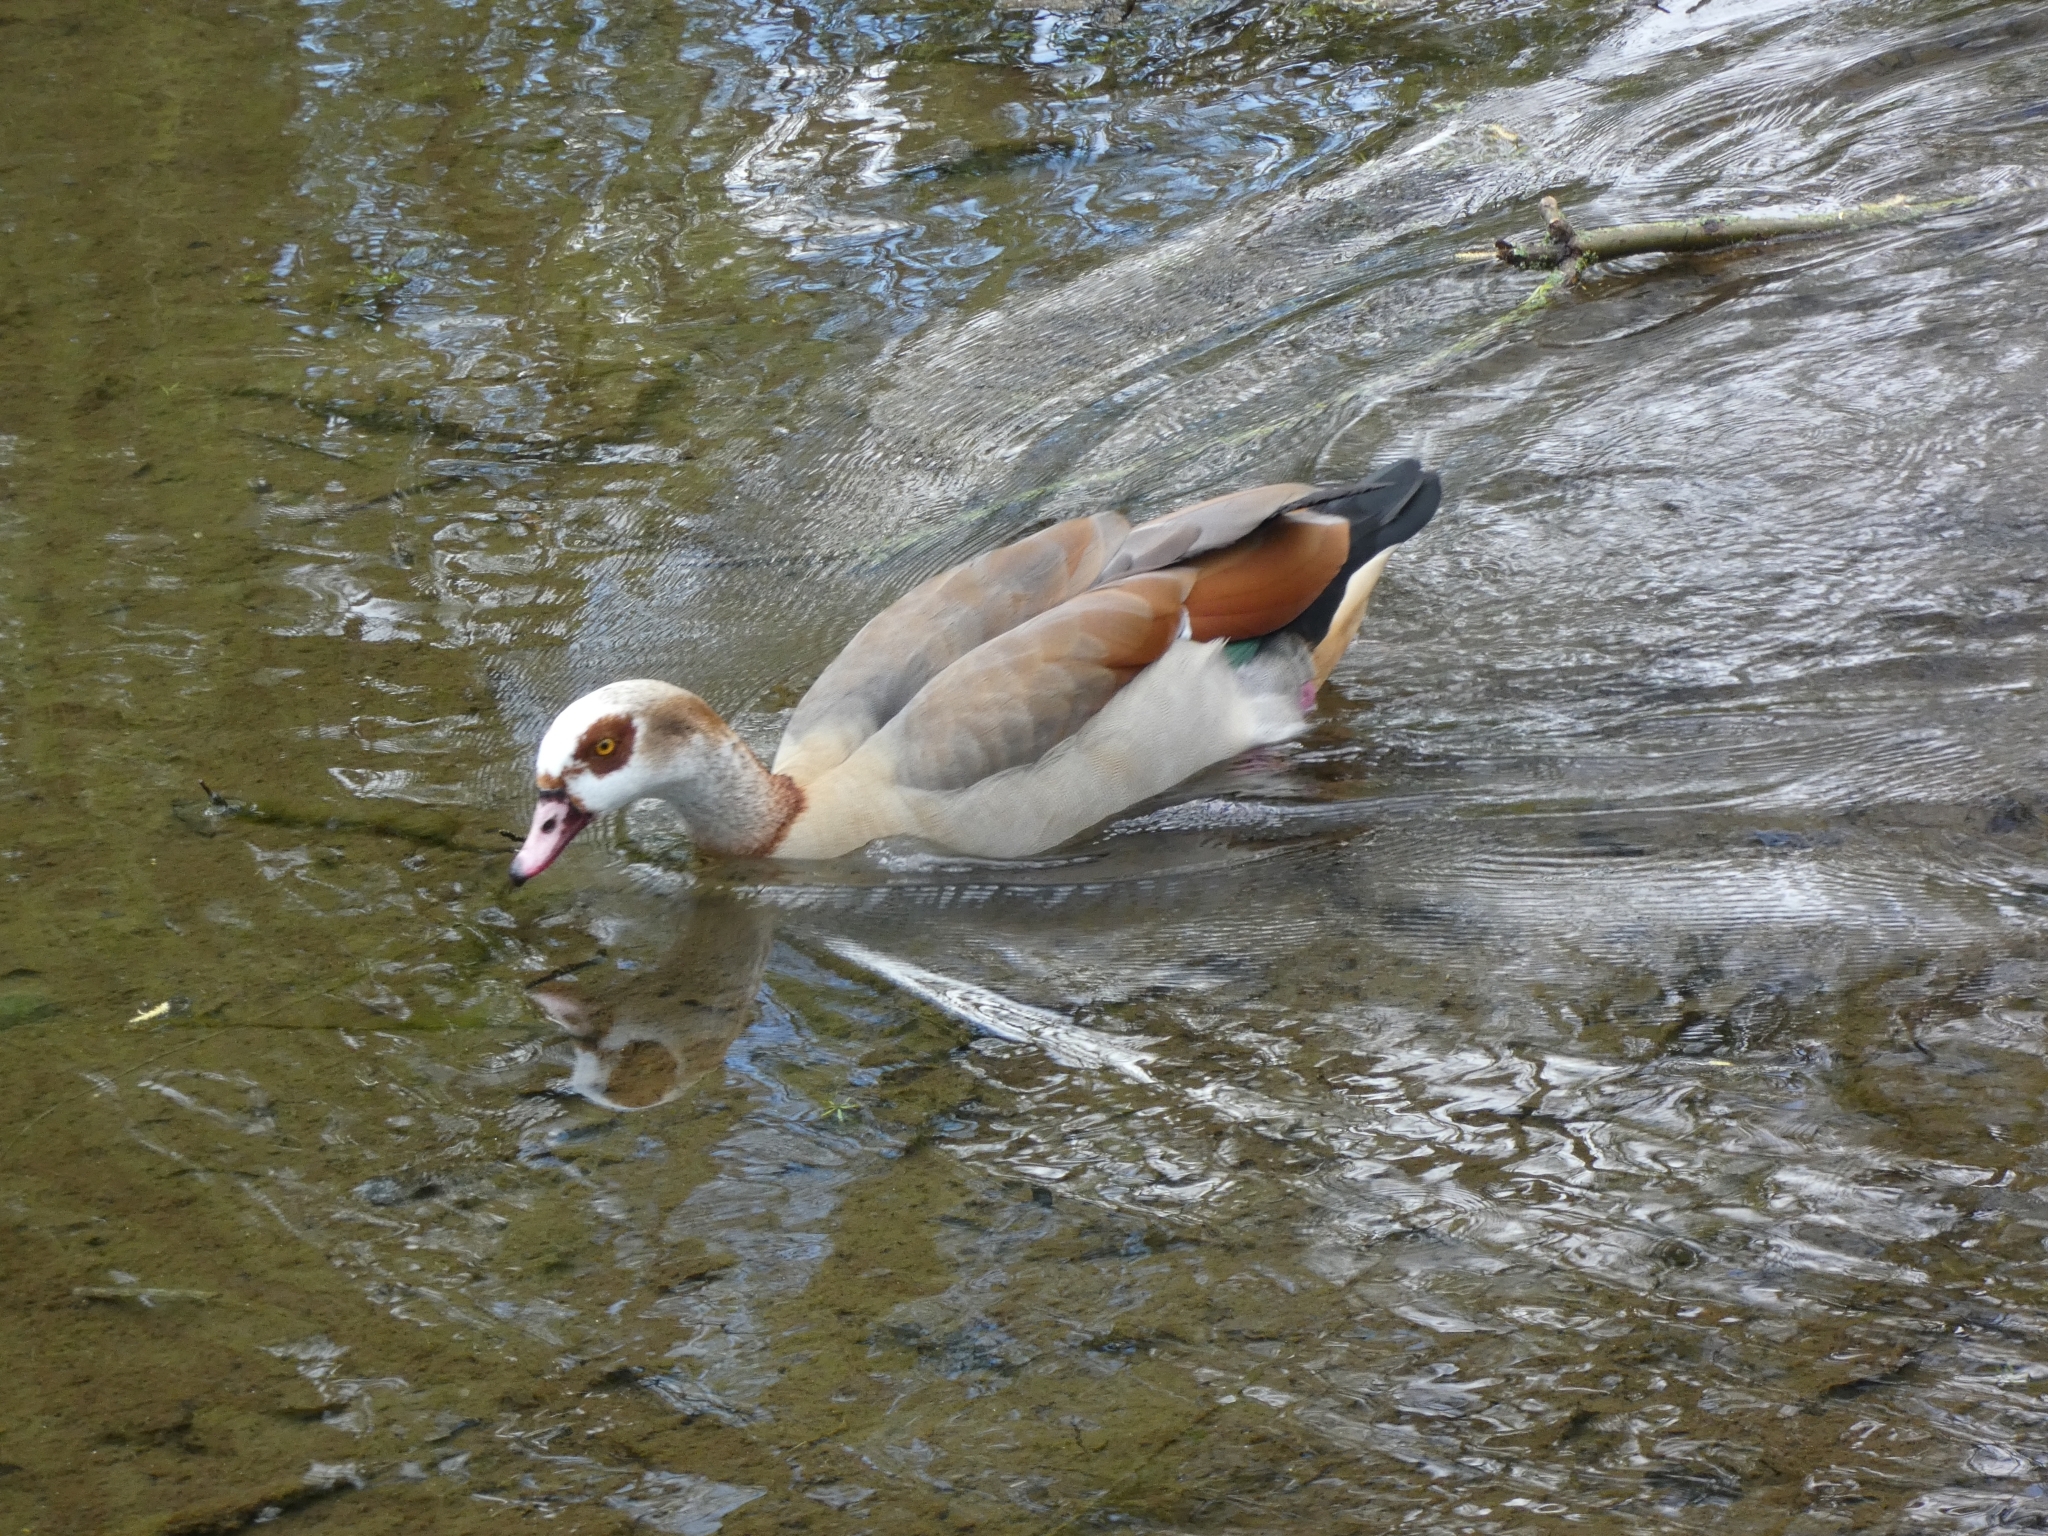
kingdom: Animalia
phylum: Chordata
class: Aves
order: Anseriformes
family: Anatidae
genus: Alopochen
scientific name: Alopochen aegyptiaca
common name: Egyptian goose
